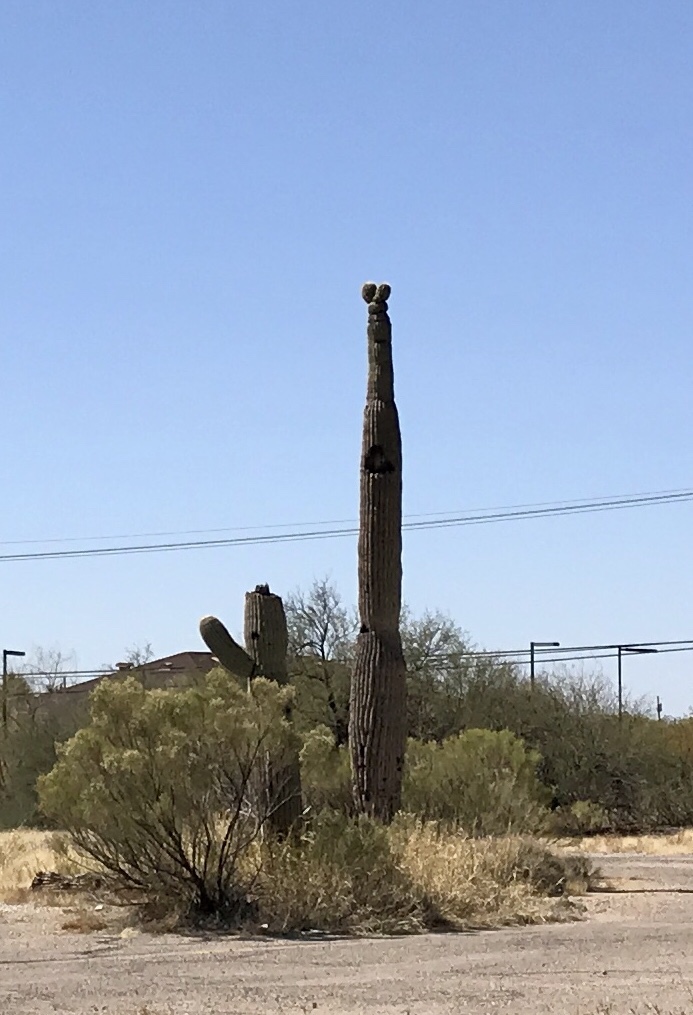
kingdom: Plantae
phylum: Tracheophyta
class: Magnoliopsida
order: Caryophyllales
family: Cactaceae
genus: Carnegiea
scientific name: Carnegiea gigantea
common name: Saguaro
